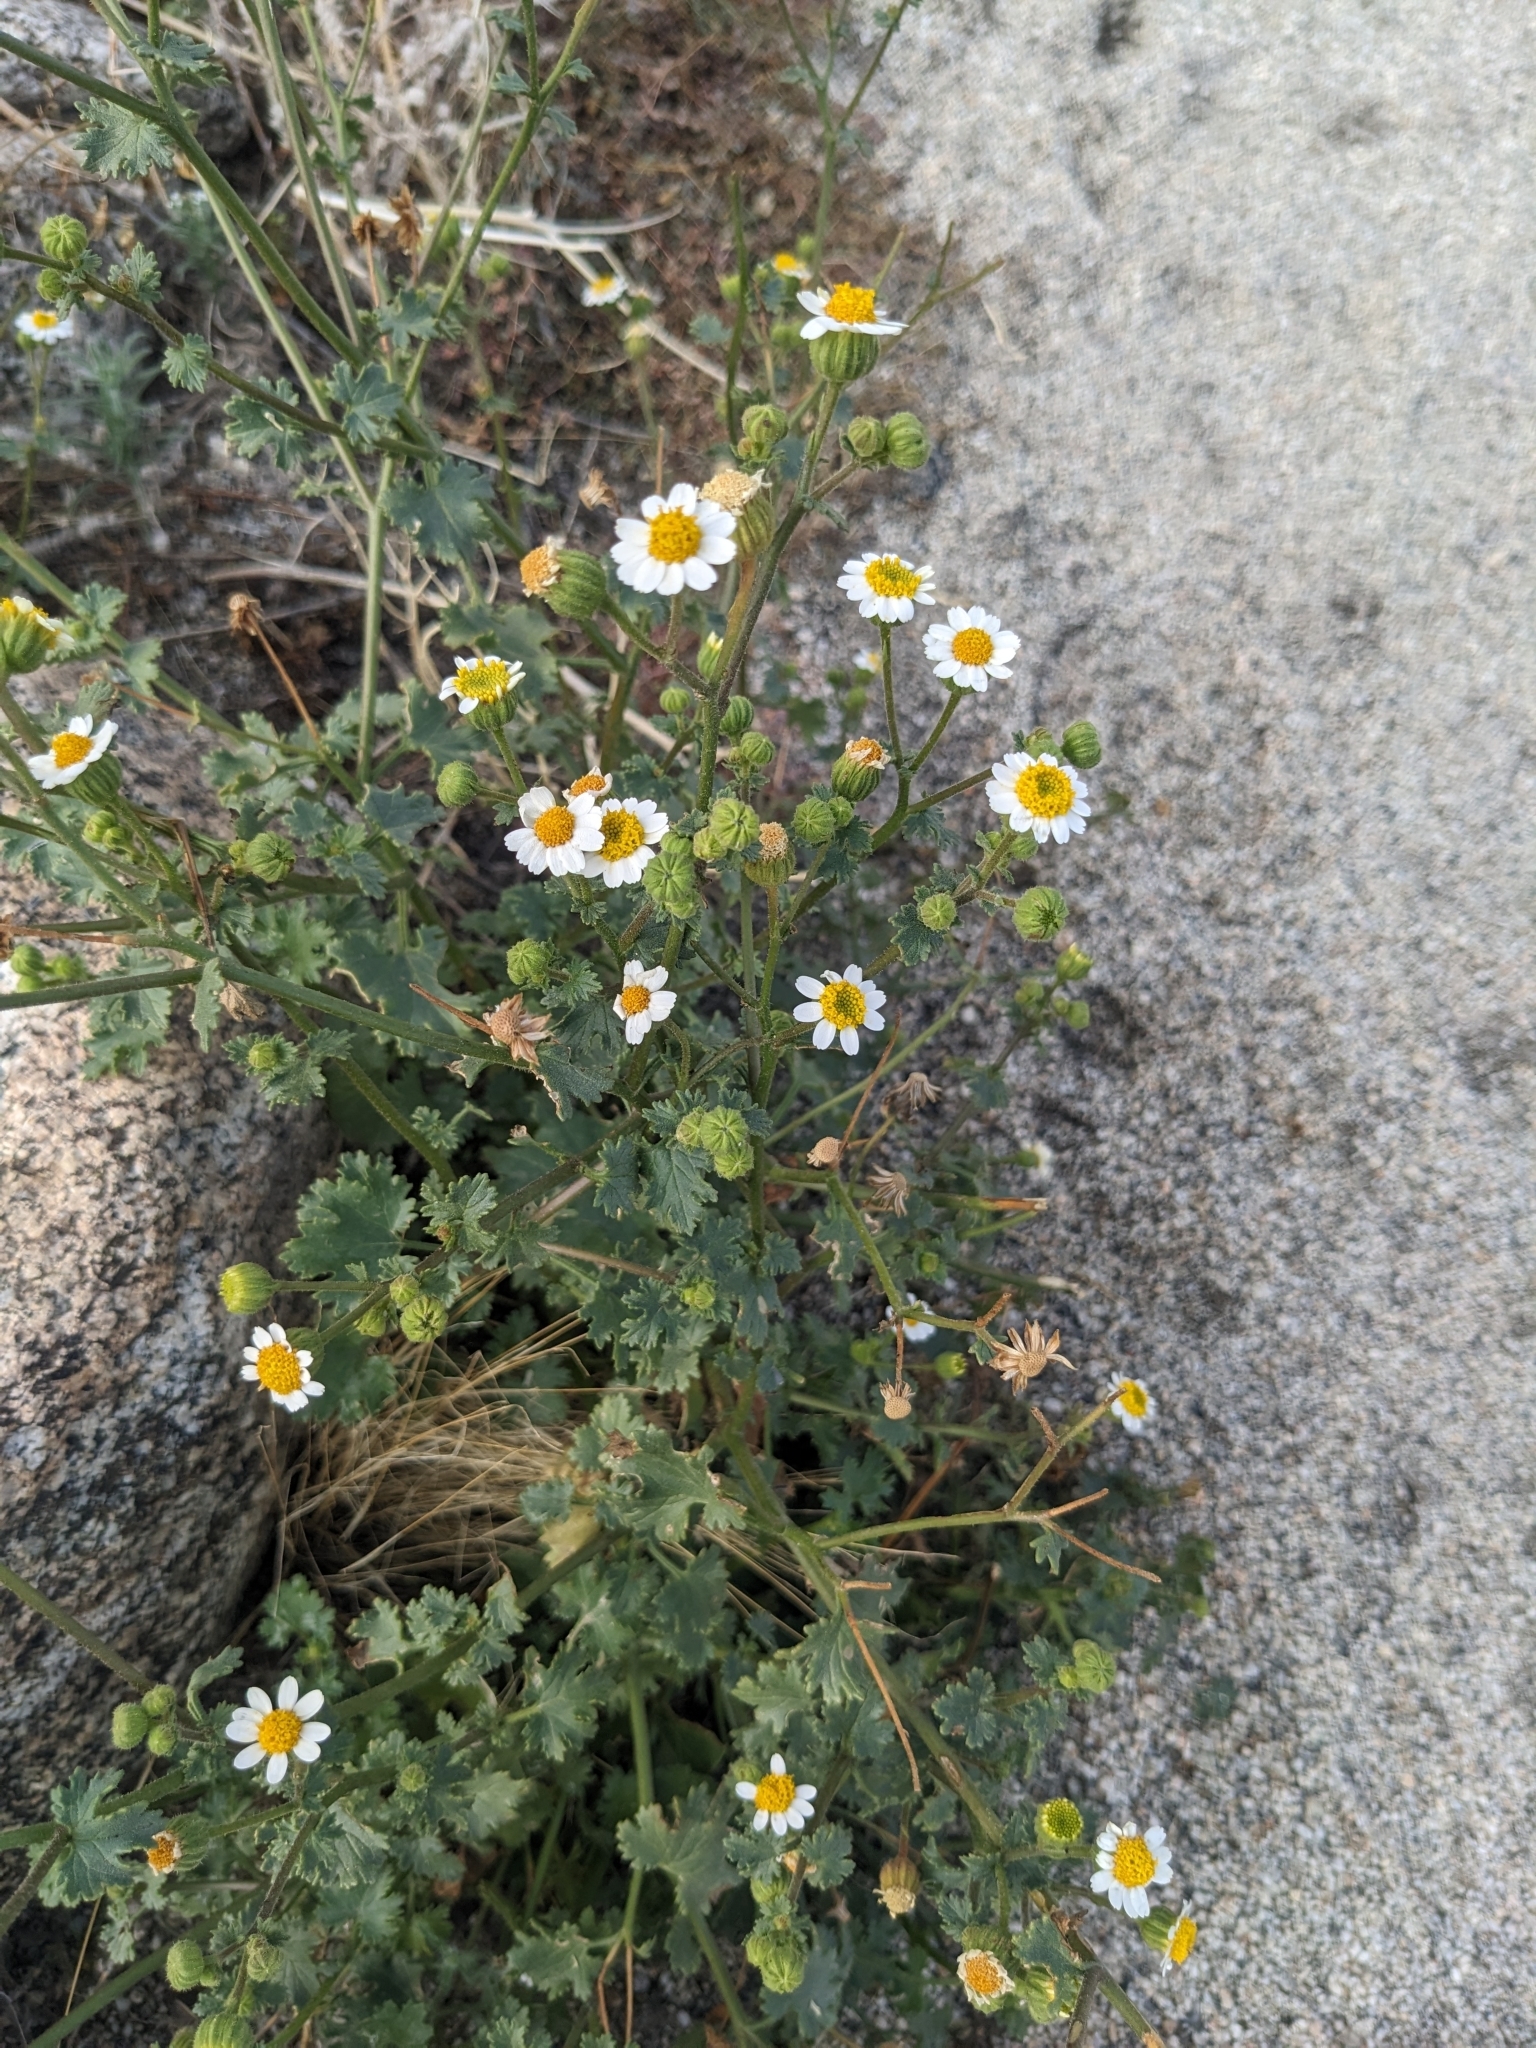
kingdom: Plantae
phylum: Tracheophyta
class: Magnoliopsida
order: Asterales
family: Asteraceae
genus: Laphamia
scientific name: Laphamia emoryi
